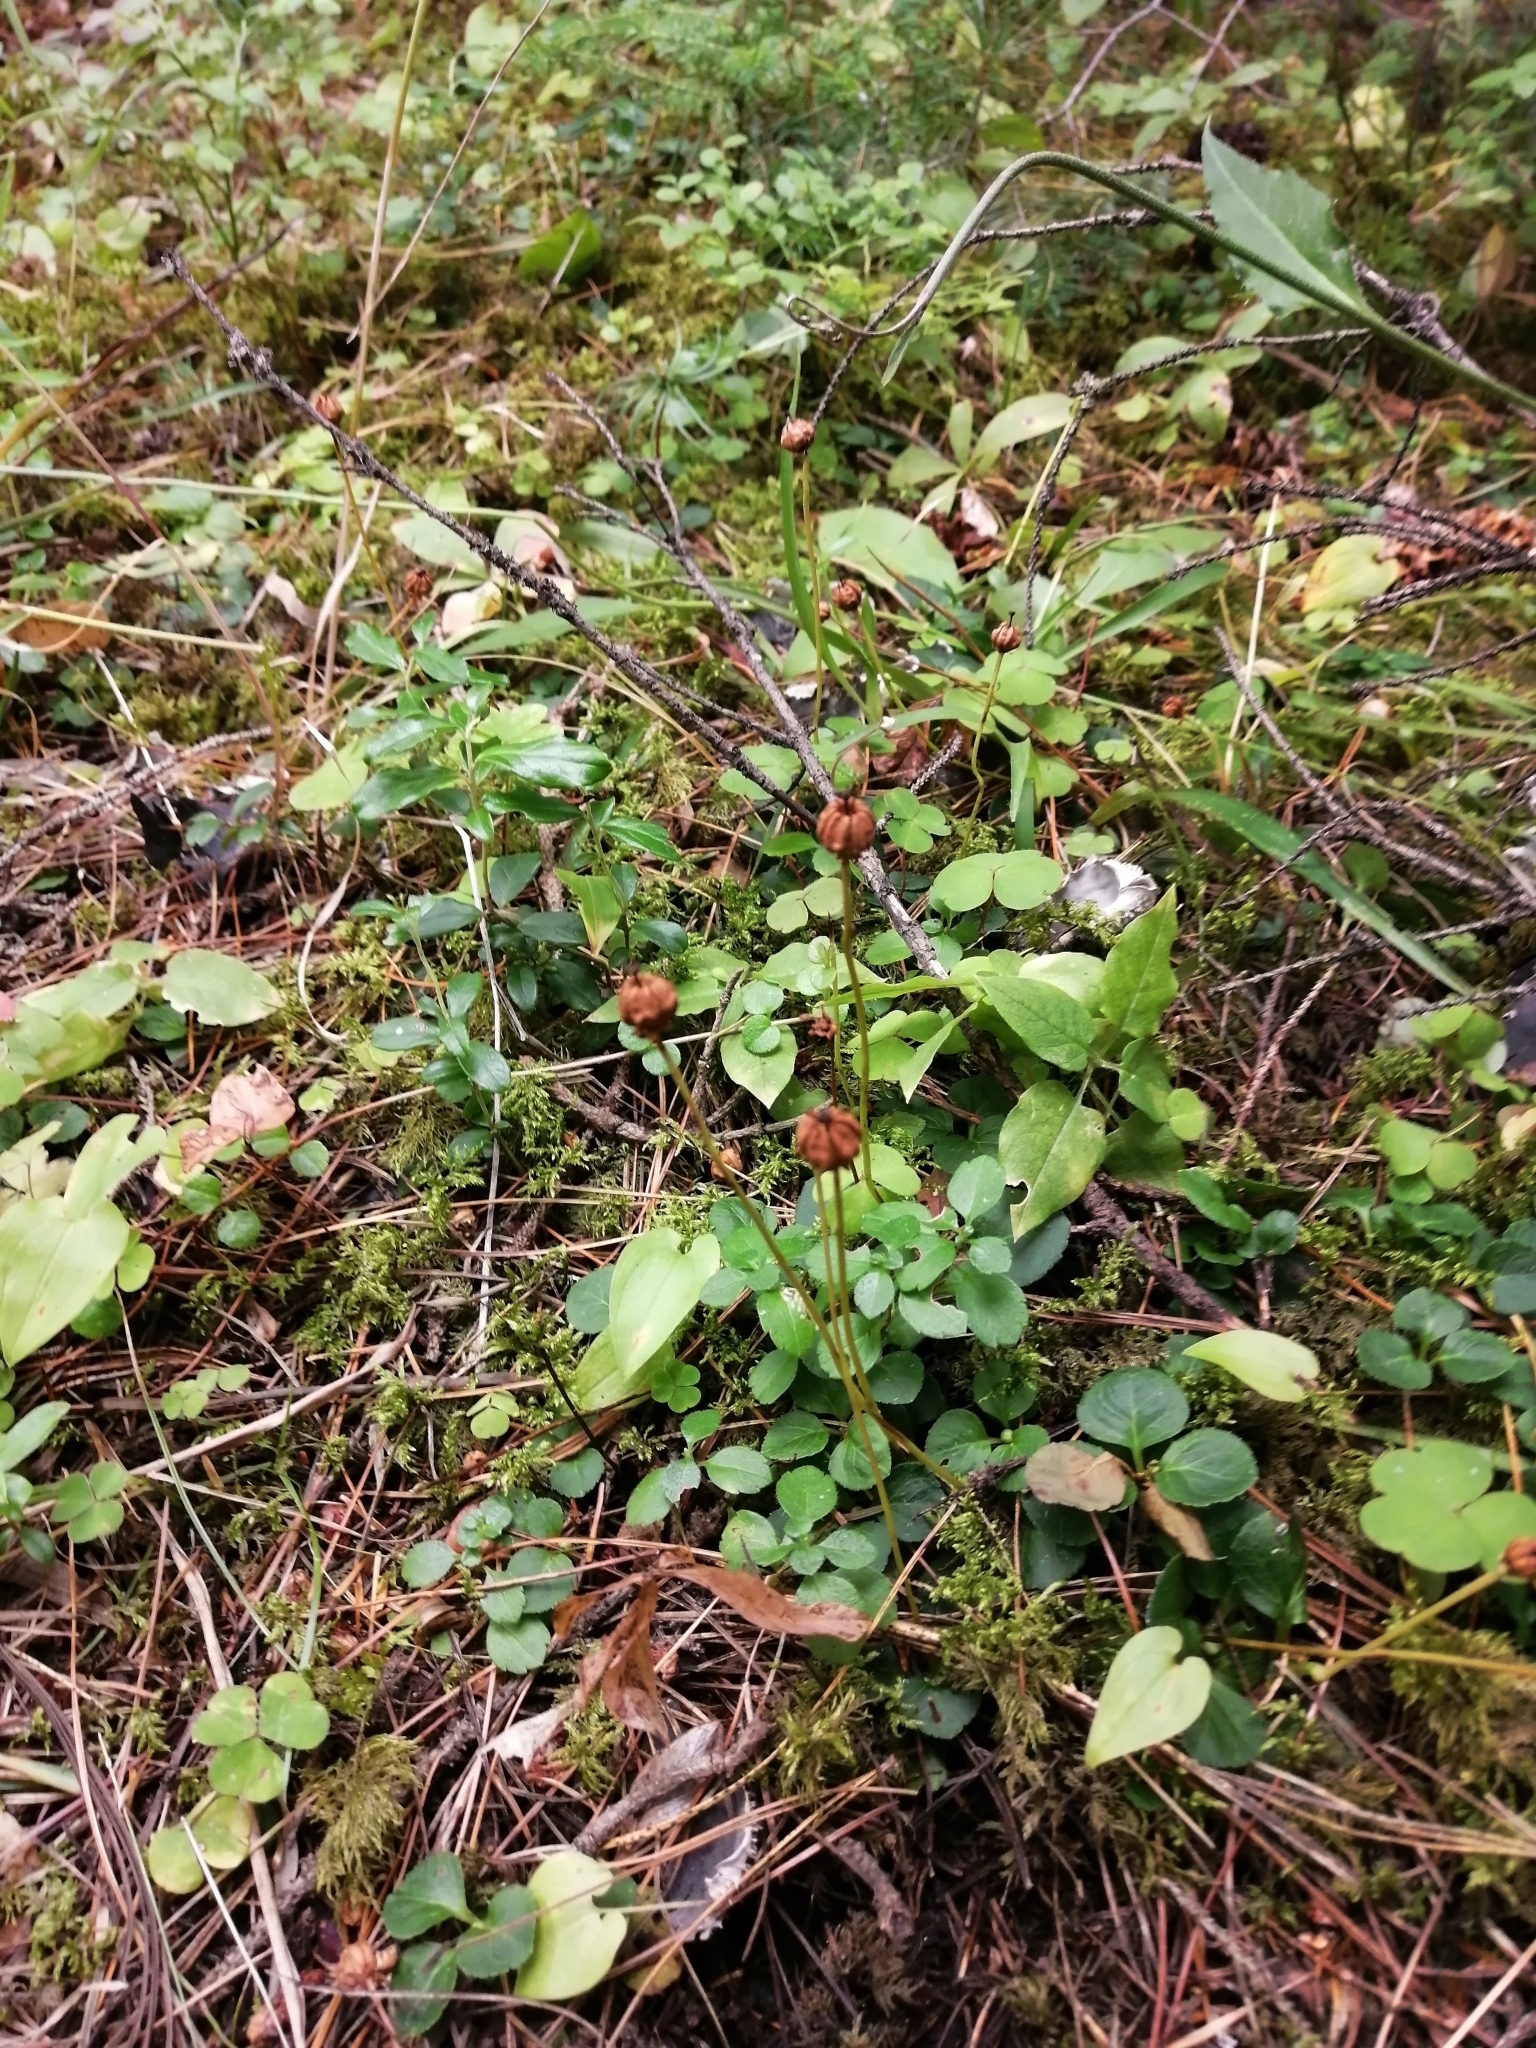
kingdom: Plantae
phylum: Tracheophyta
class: Magnoliopsida
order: Ericales
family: Ericaceae
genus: Moneses
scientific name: Moneses uniflora
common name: One-flowered wintergreen
